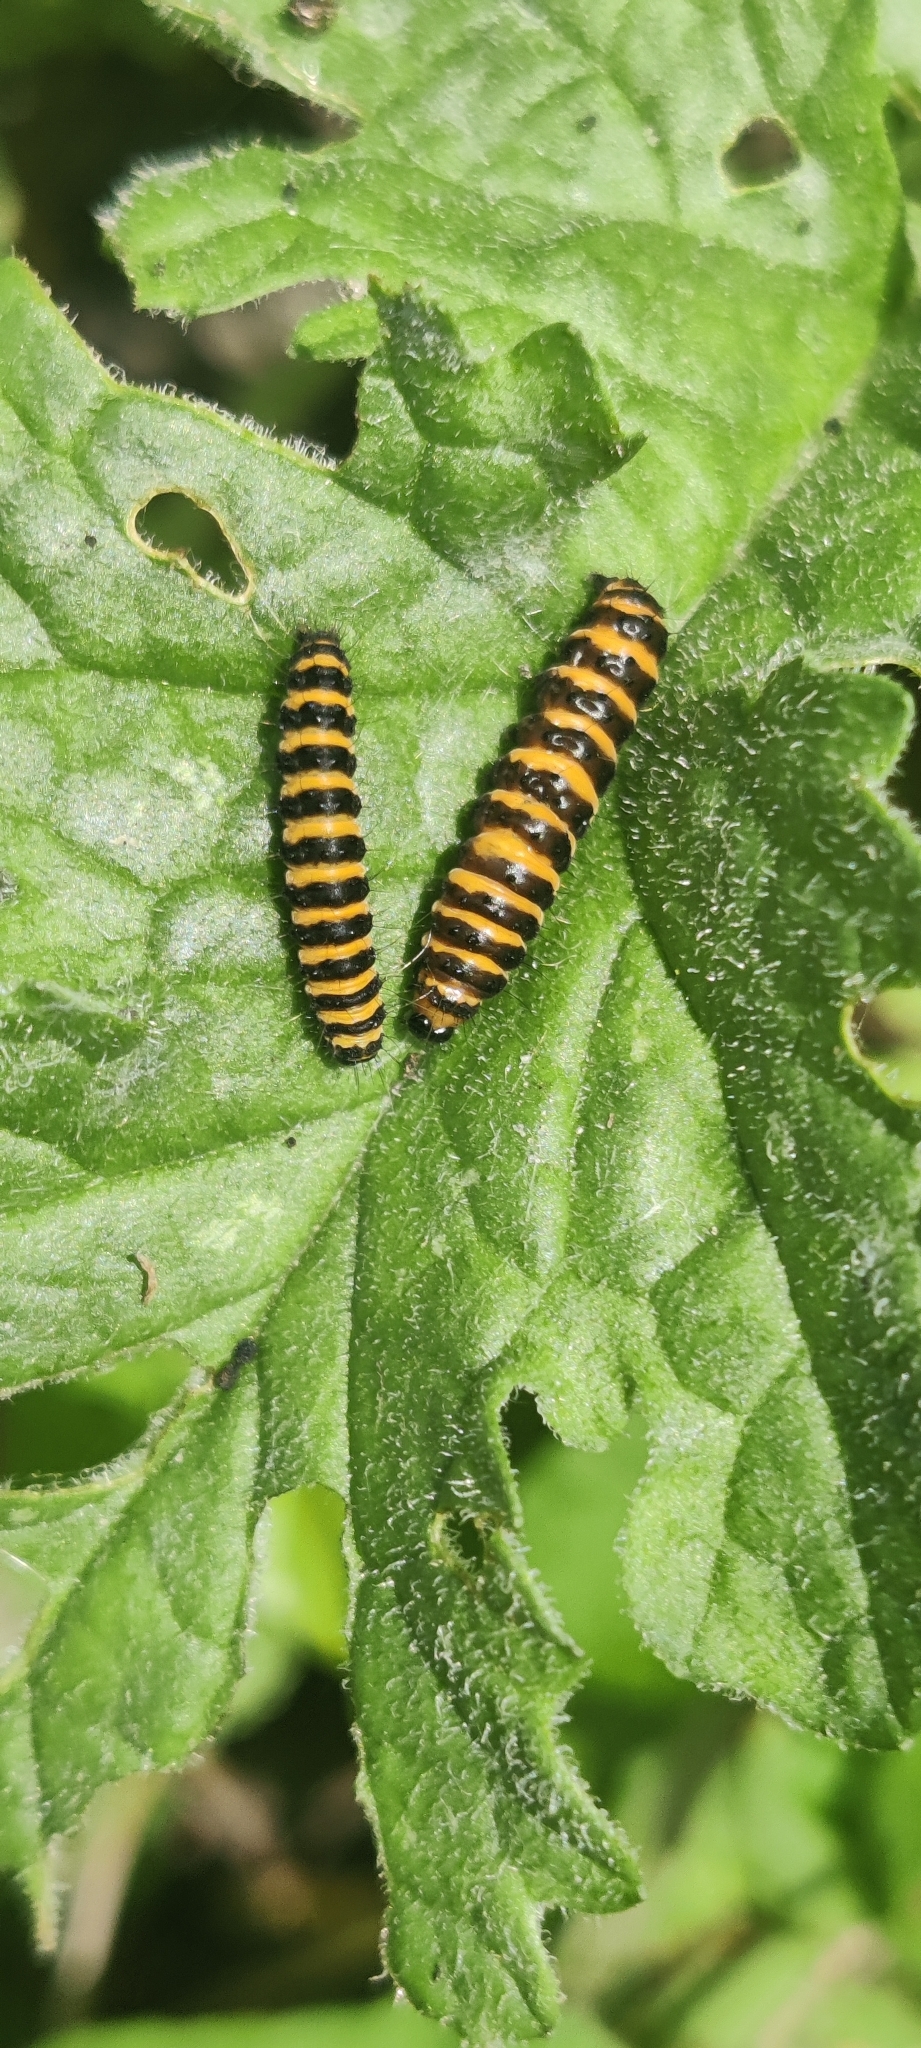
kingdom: Animalia
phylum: Arthropoda
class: Insecta
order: Lepidoptera
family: Erebidae
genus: Tyria
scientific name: Tyria jacobaeae
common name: Cinnabar
